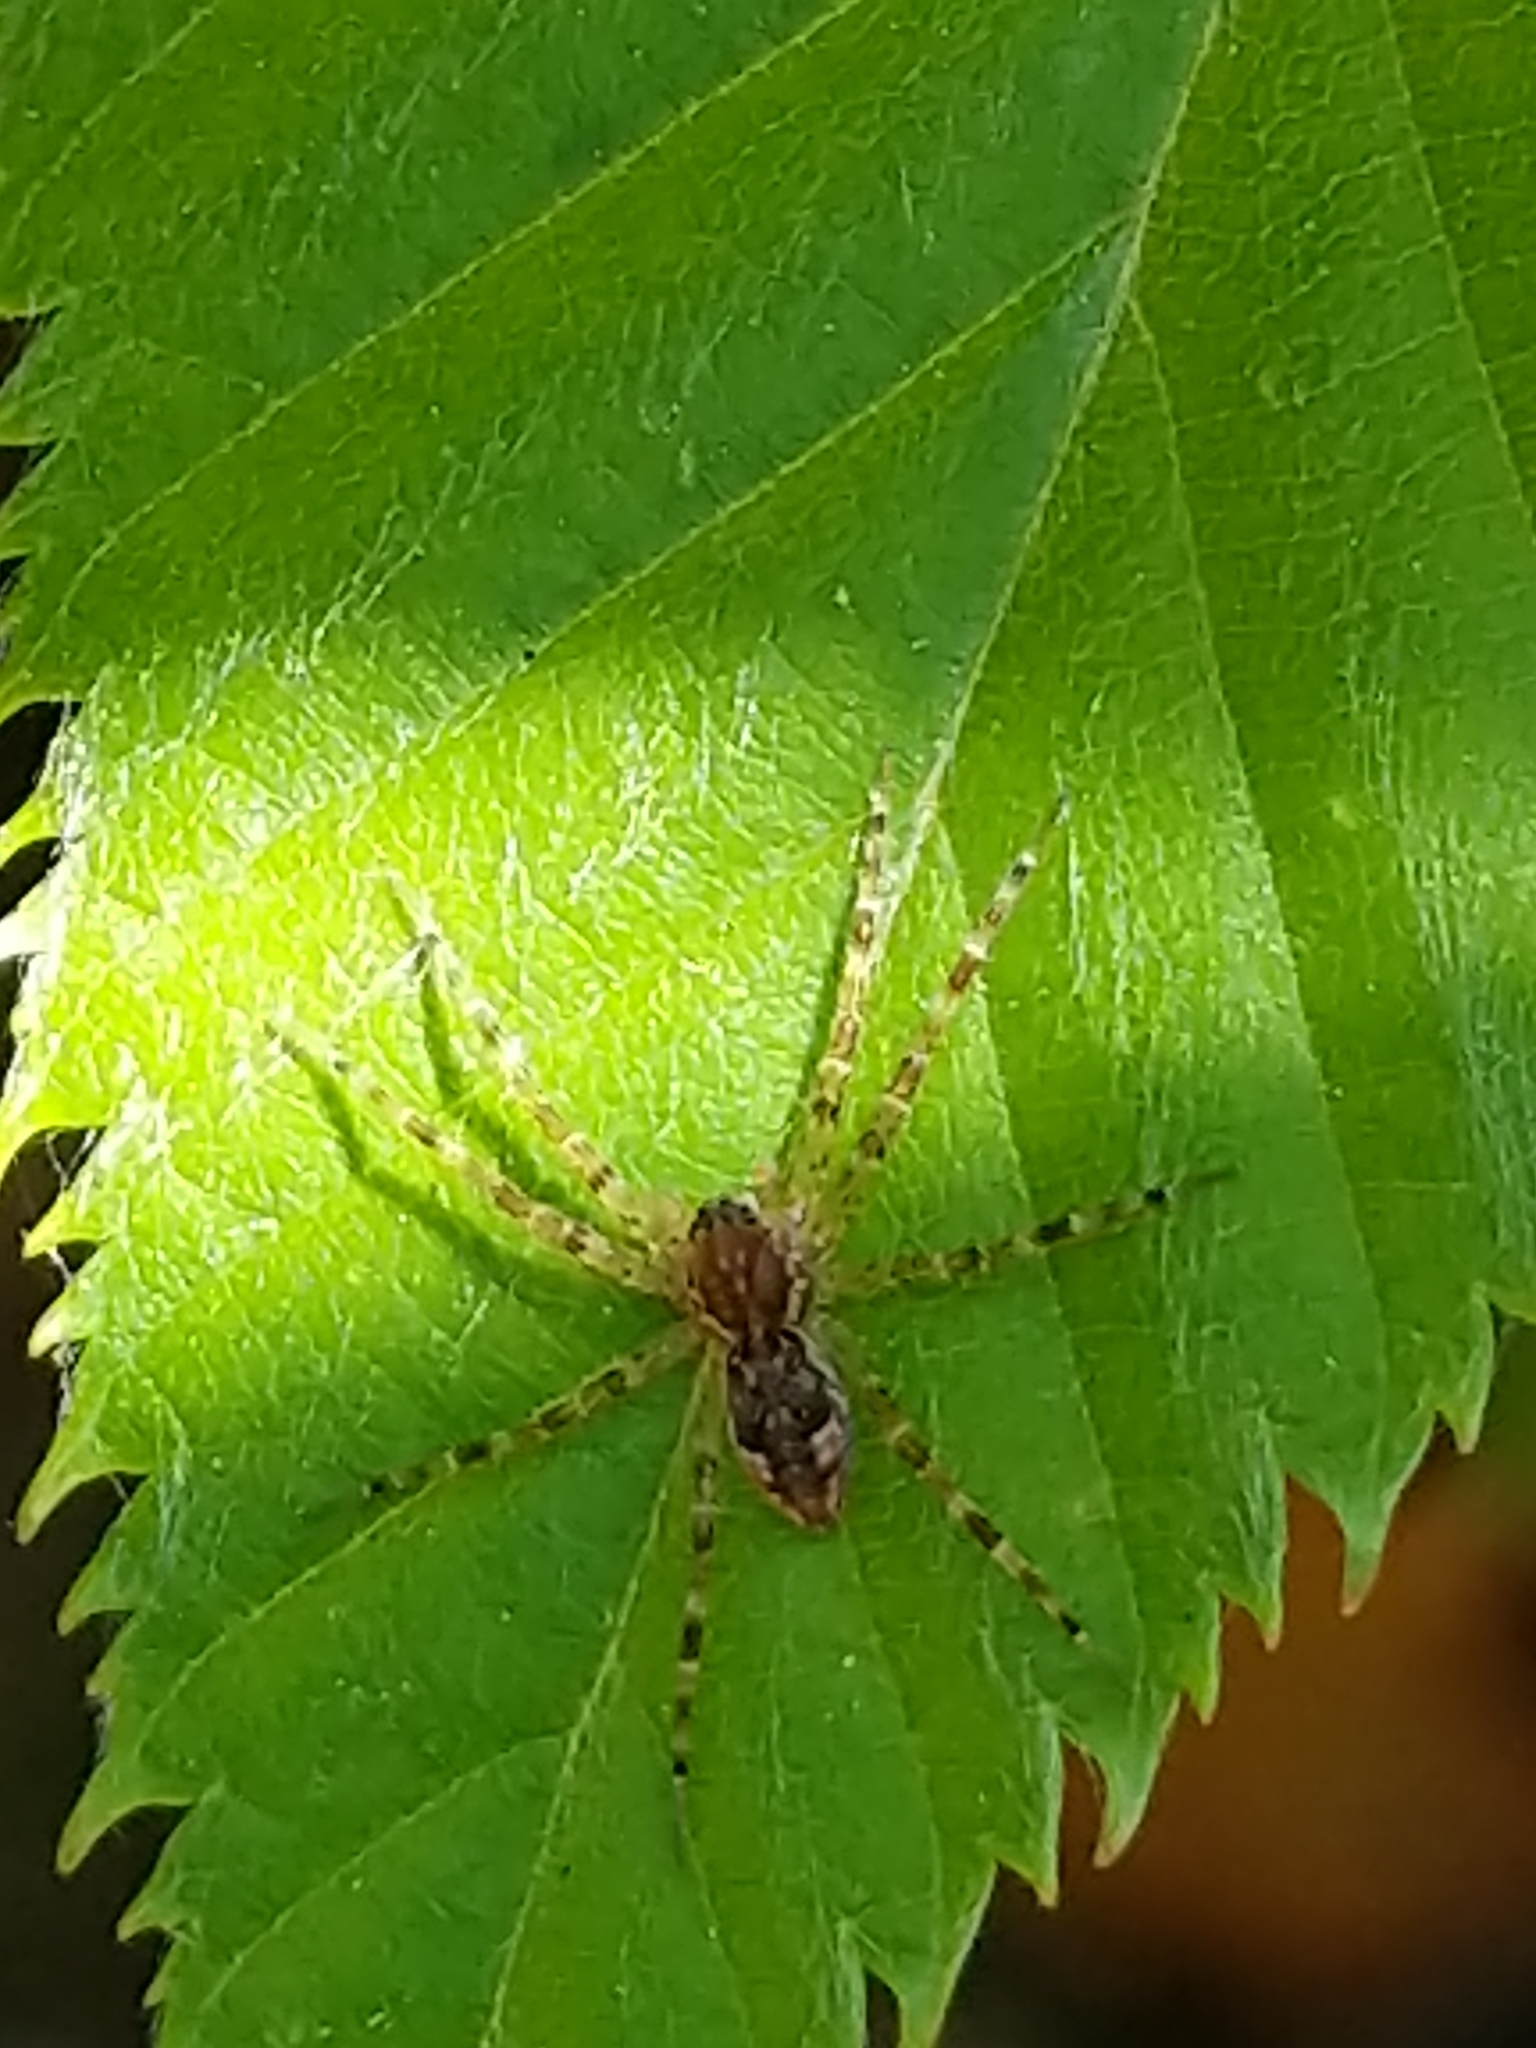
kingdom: Animalia
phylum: Arthropoda
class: Arachnida
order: Araneae
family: Pisauridae
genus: Dolomedes
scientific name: Dolomedes tenebrosus
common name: Dark fishing spider
